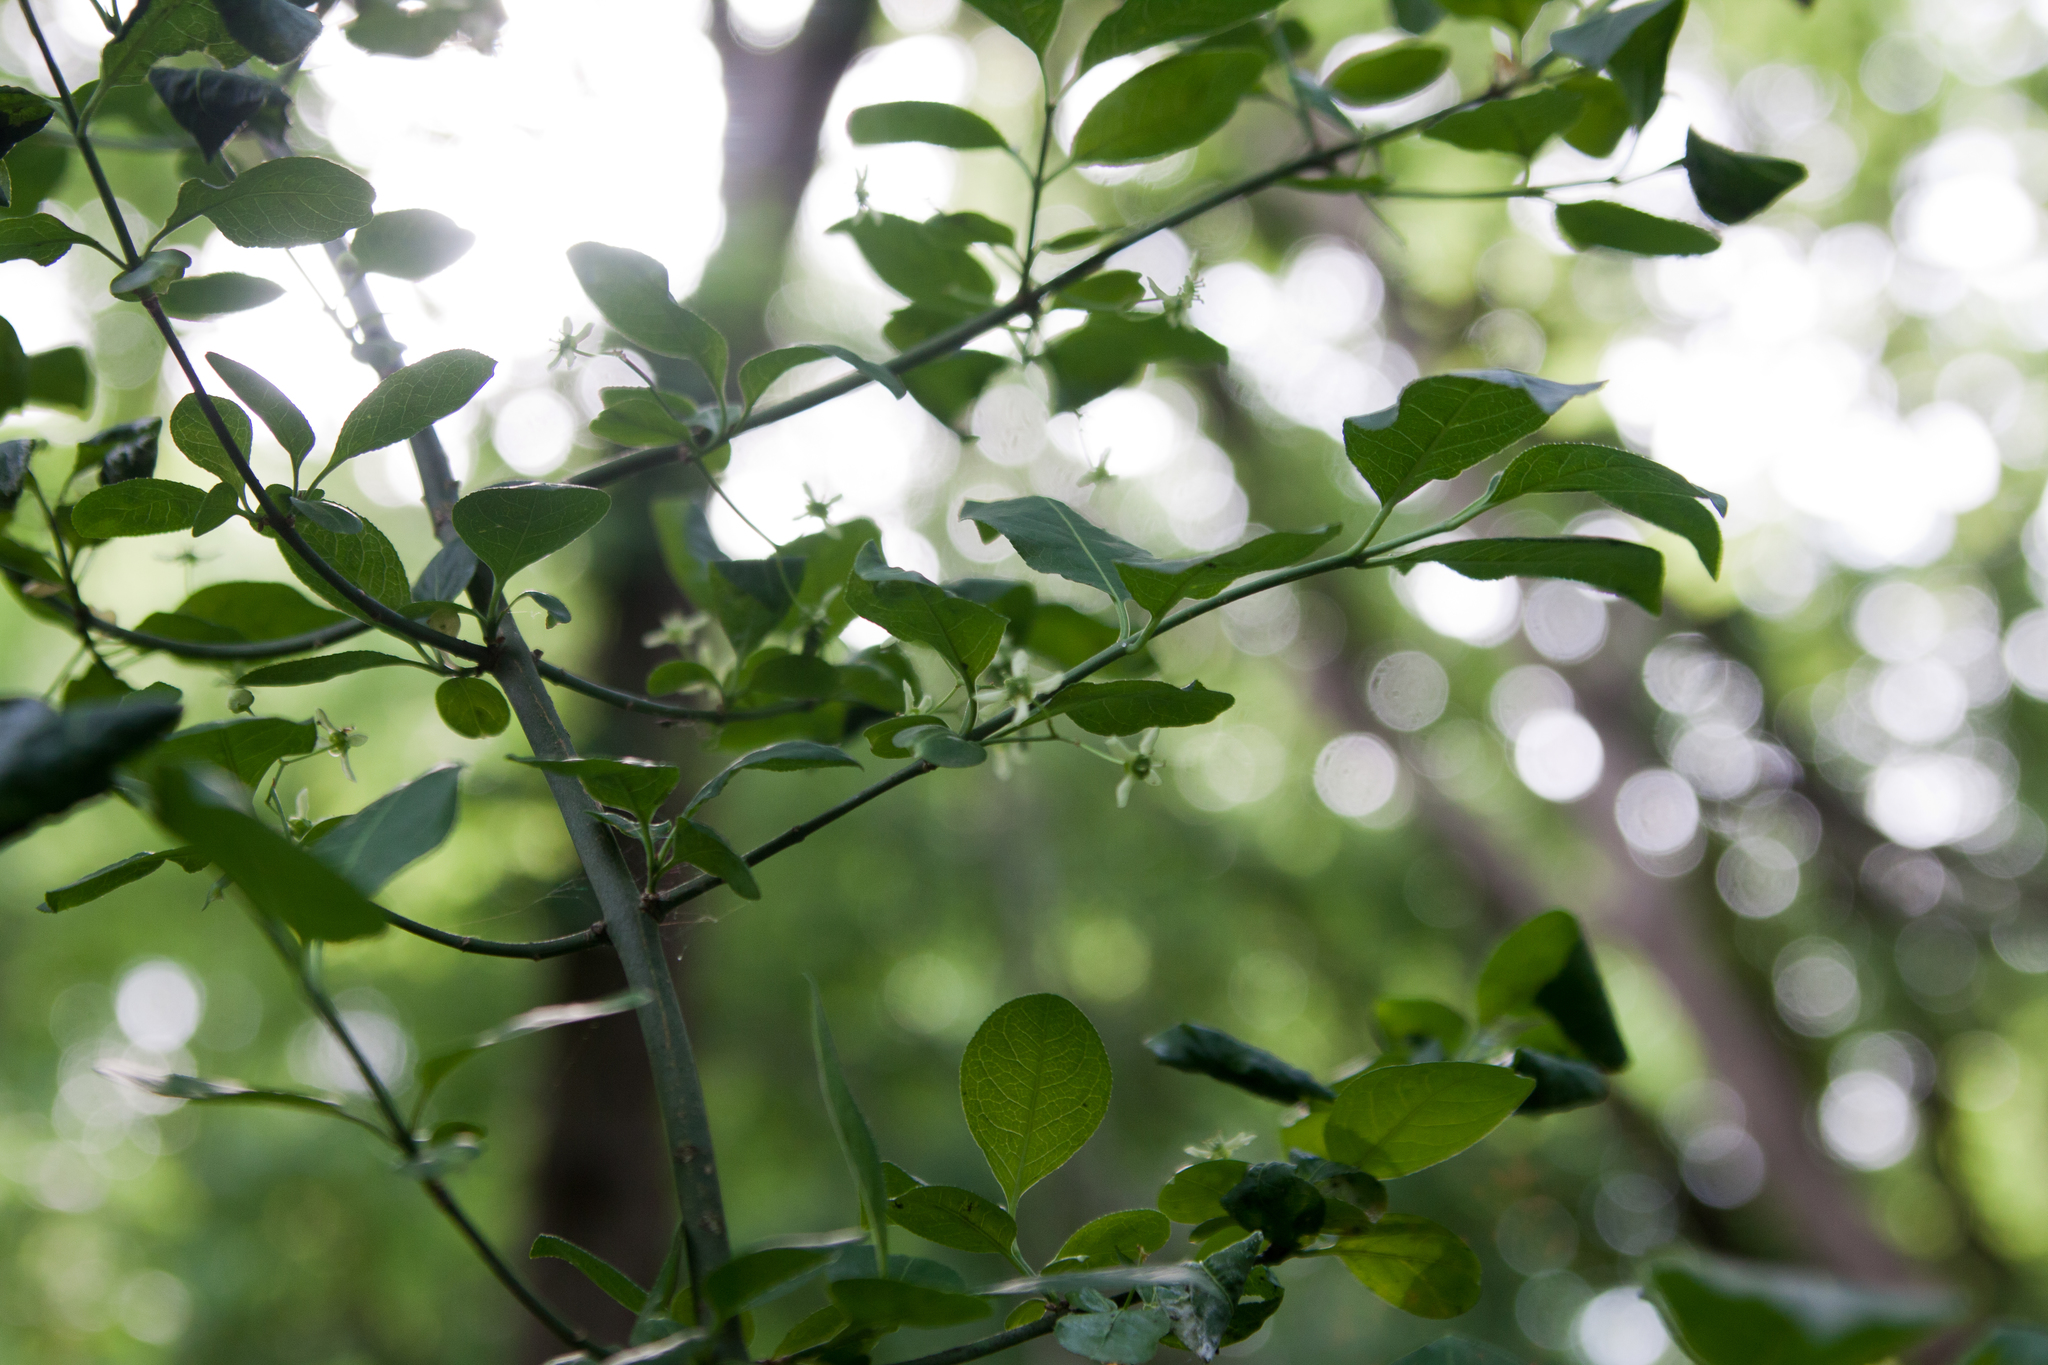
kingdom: Plantae
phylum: Tracheophyta
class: Magnoliopsida
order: Celastrales
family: Celastraceae
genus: Euonymus
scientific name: Euonymus europaeus
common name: Spindle
